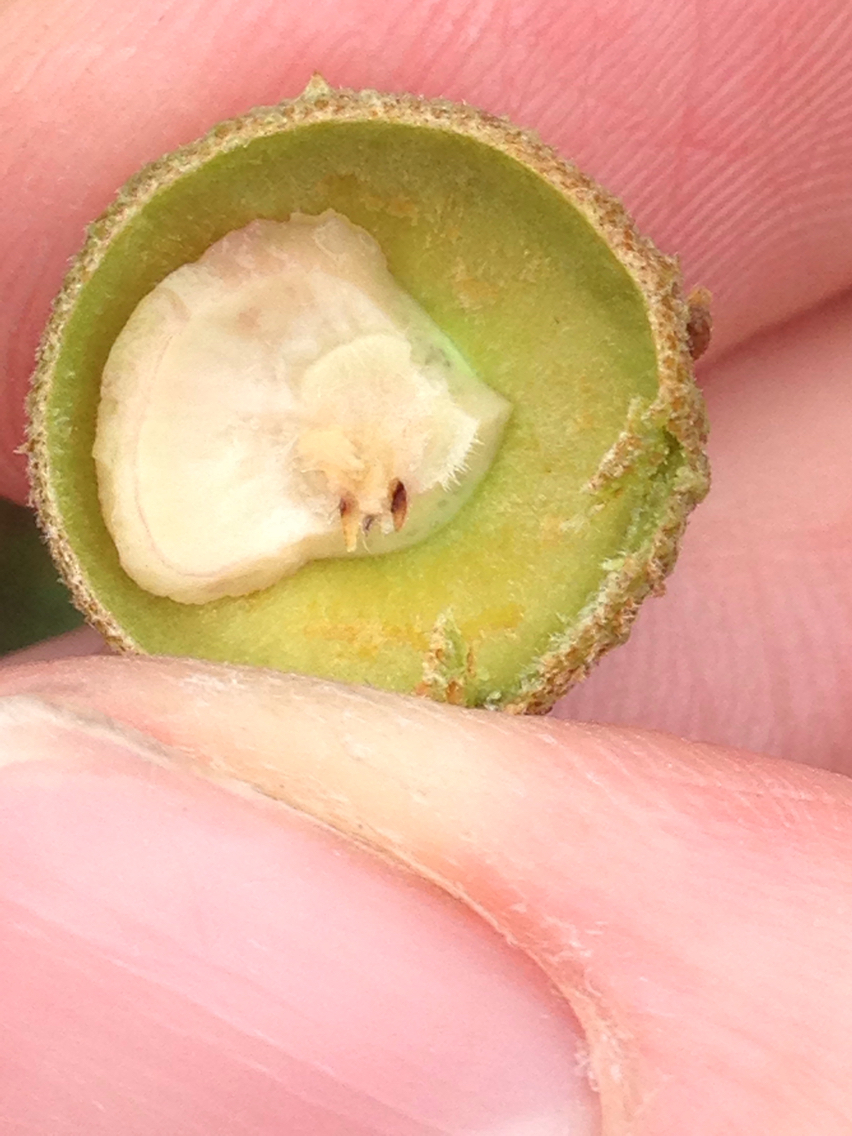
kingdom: Plantae
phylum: Tracheophyta
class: Magnoliopsida
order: Fagales
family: Fagaceae
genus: Quercus
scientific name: Quercus berberidifolia
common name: California scrub oak
